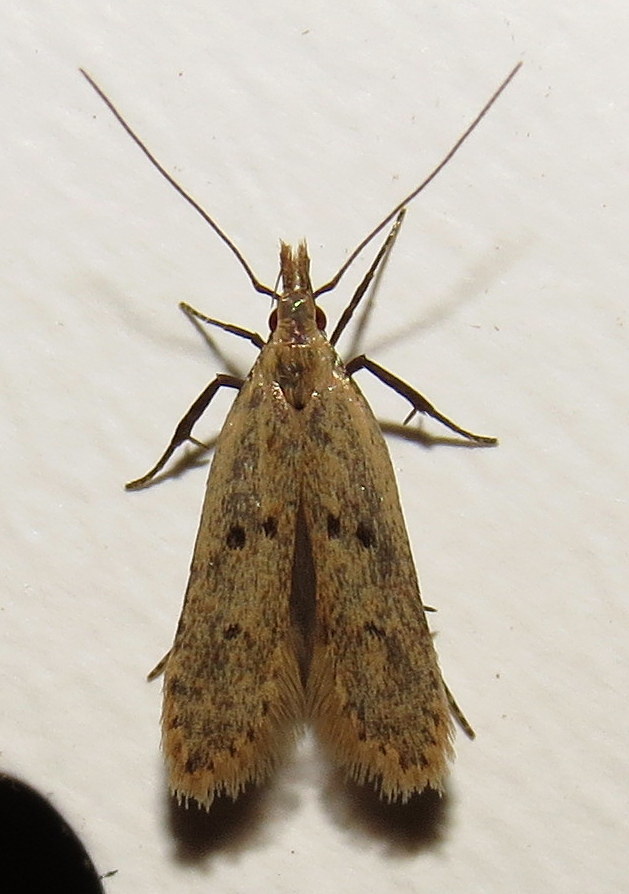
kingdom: Animalia
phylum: Arthropoda
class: Insecta
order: Lepidoptera
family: Gelechiidae
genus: Dichomeris
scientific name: Dichomeris punctipennella
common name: Many-spotted dichomeris moth
